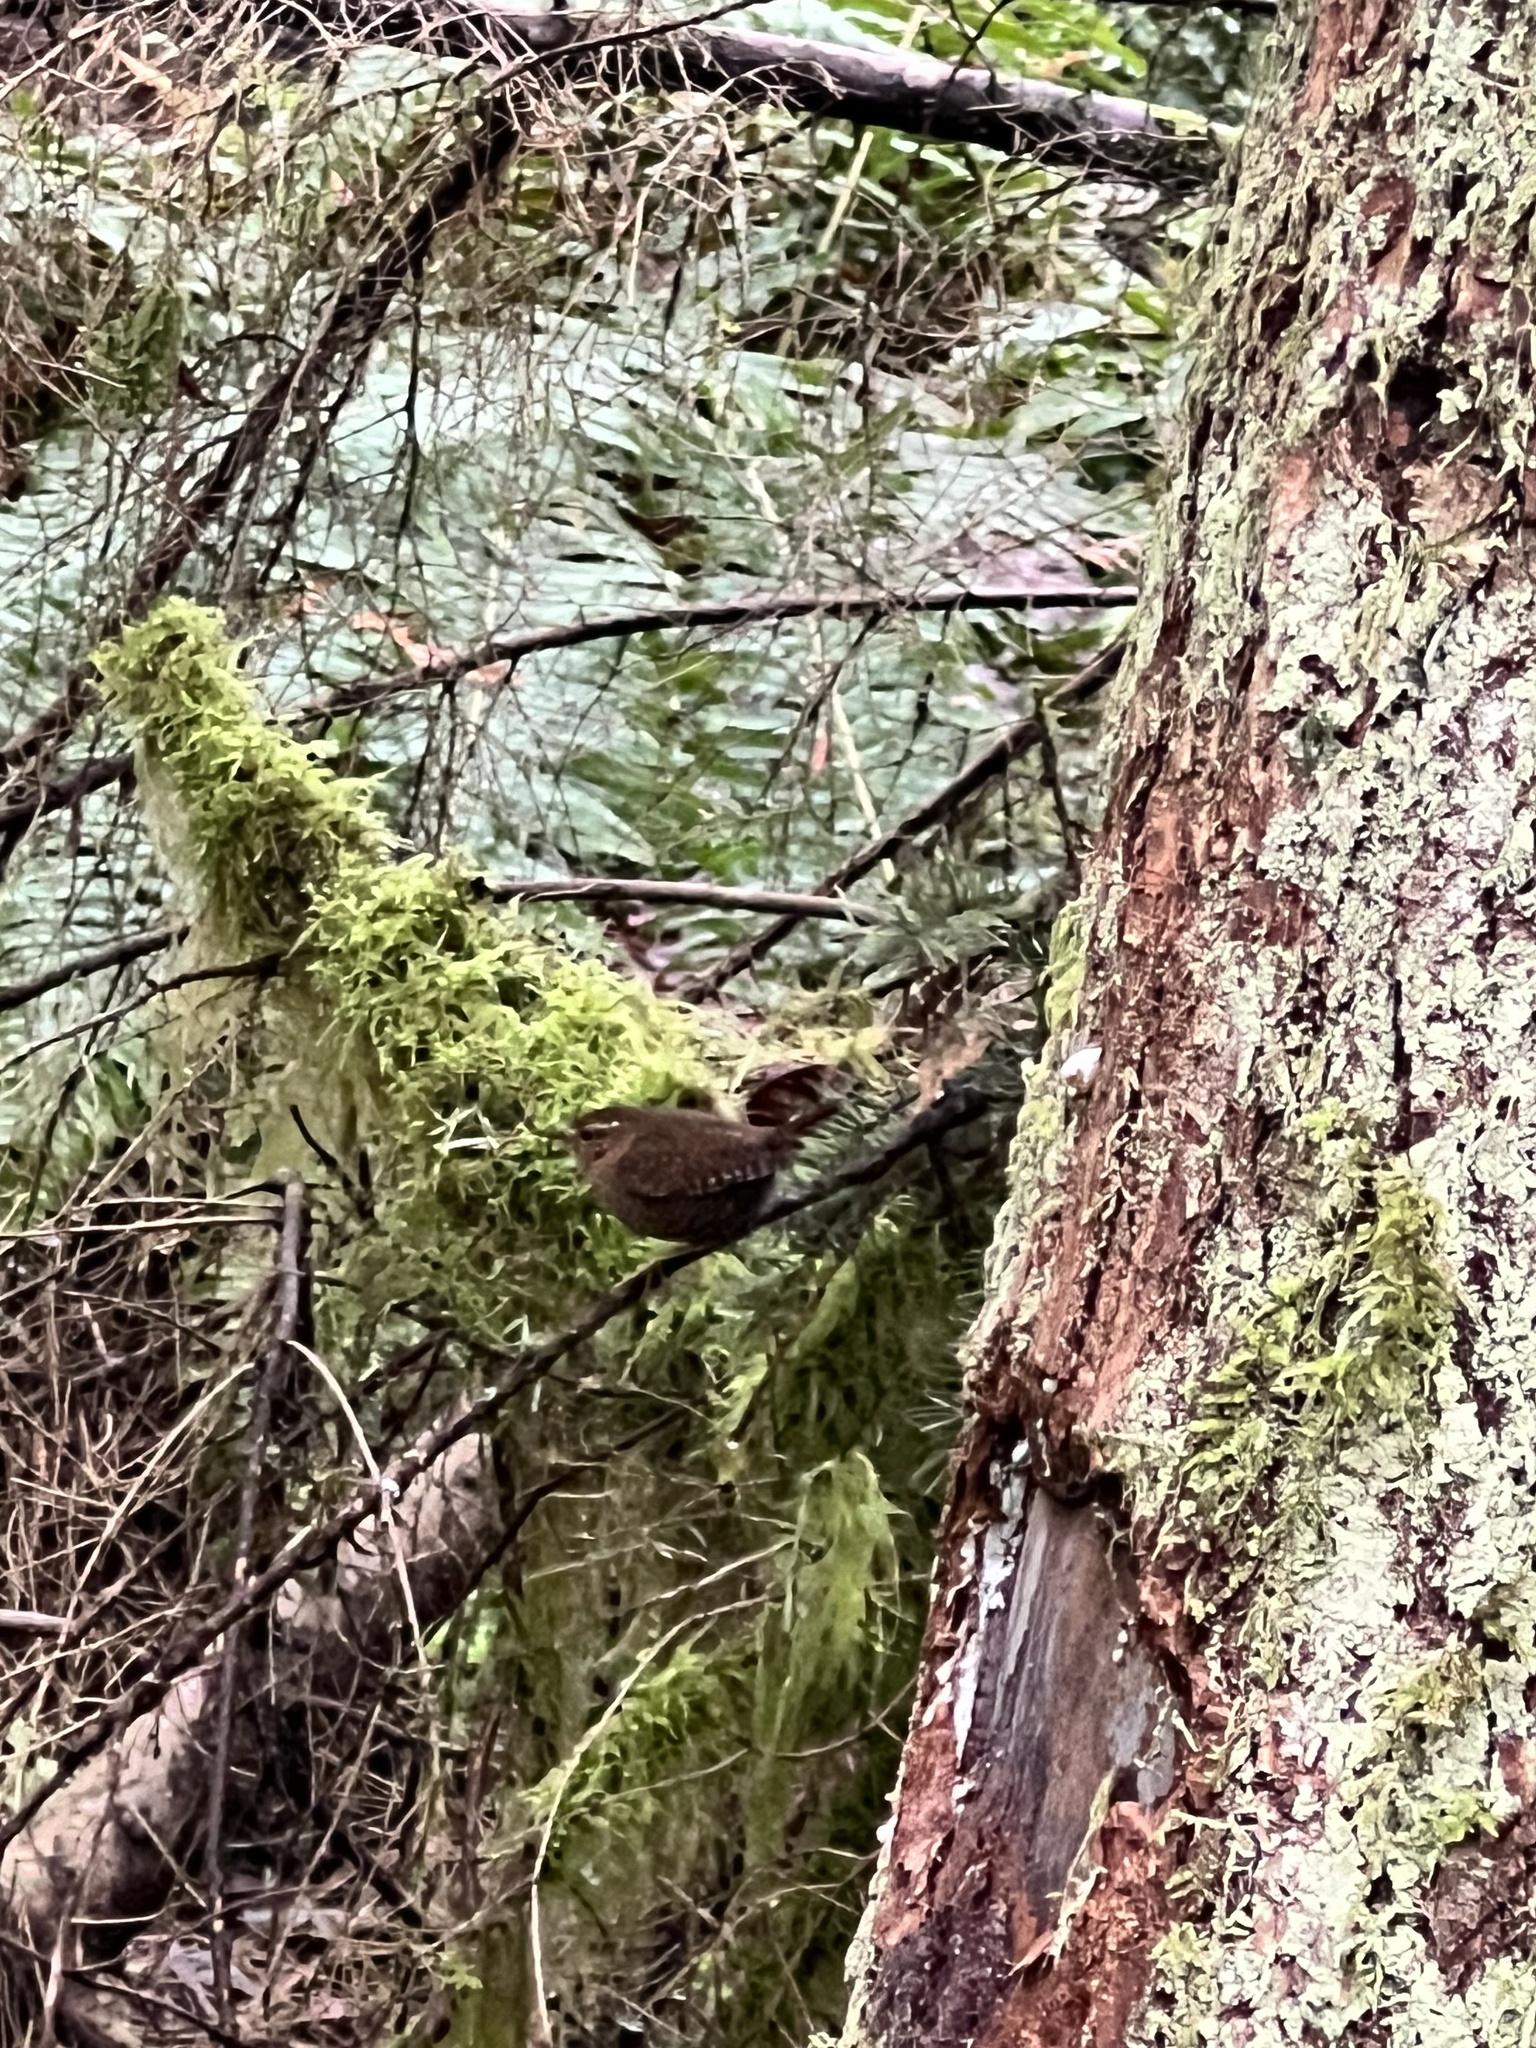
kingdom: Animalia
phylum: Chordata
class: Aves
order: Passeriformes
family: Troglodytidae
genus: Troglodytes
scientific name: Troglodytes pacificus
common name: Pacific wren
